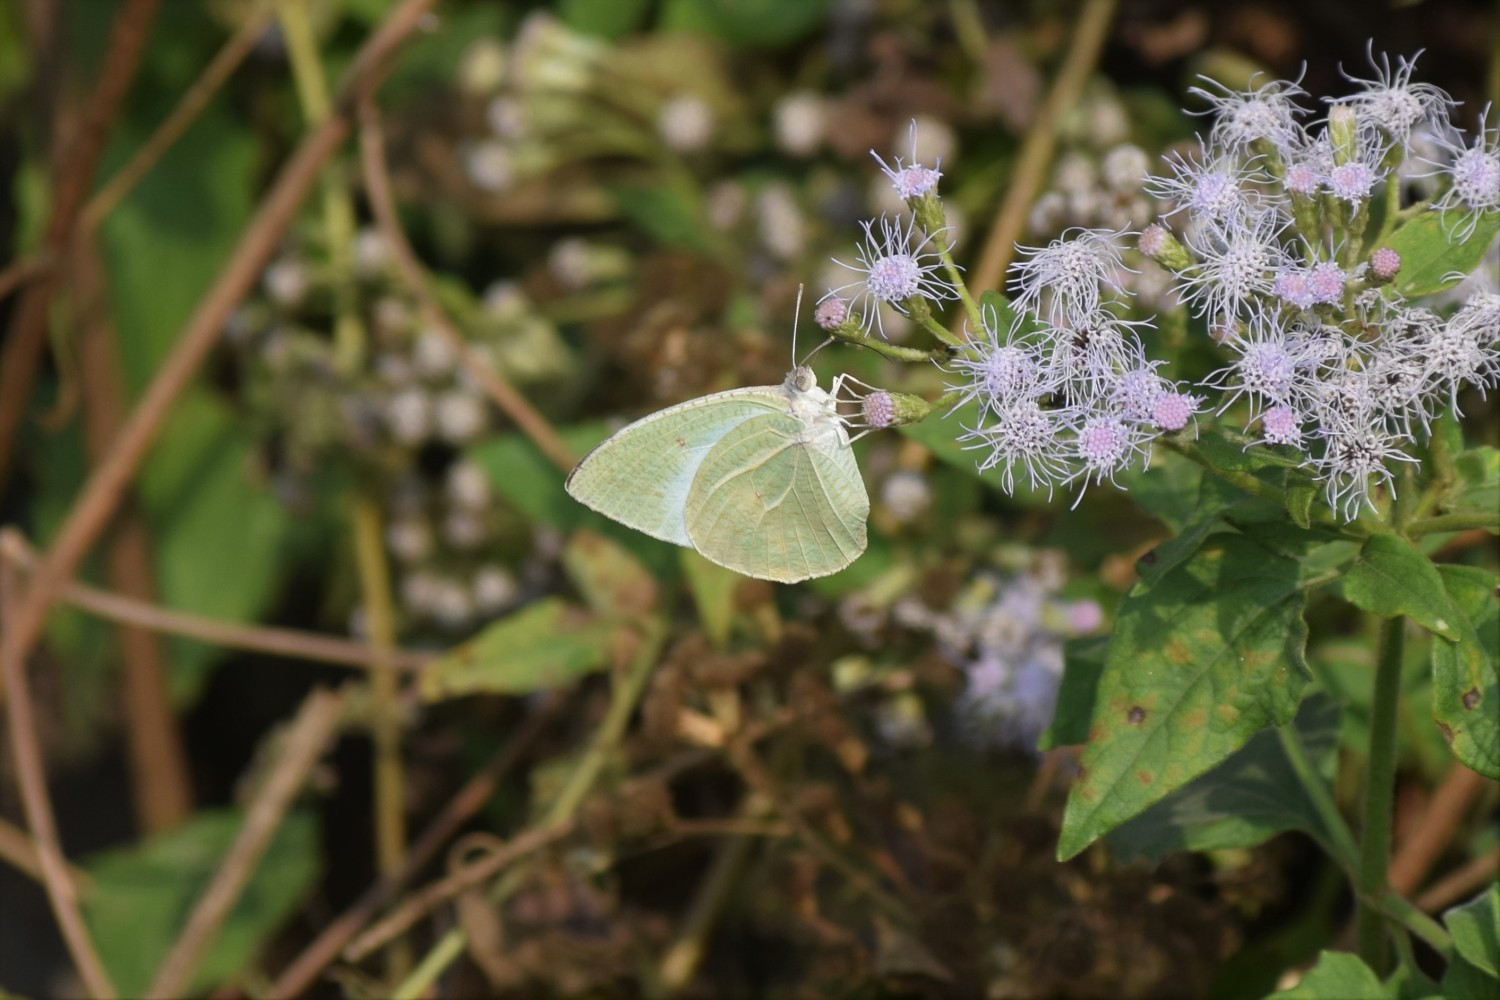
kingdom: Animalia
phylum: Arthropoda
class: Insecta
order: Lepidoptera
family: Pieridae
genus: Catopsilia
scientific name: Catopsilia pyranthe
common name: Mottled emigrant
